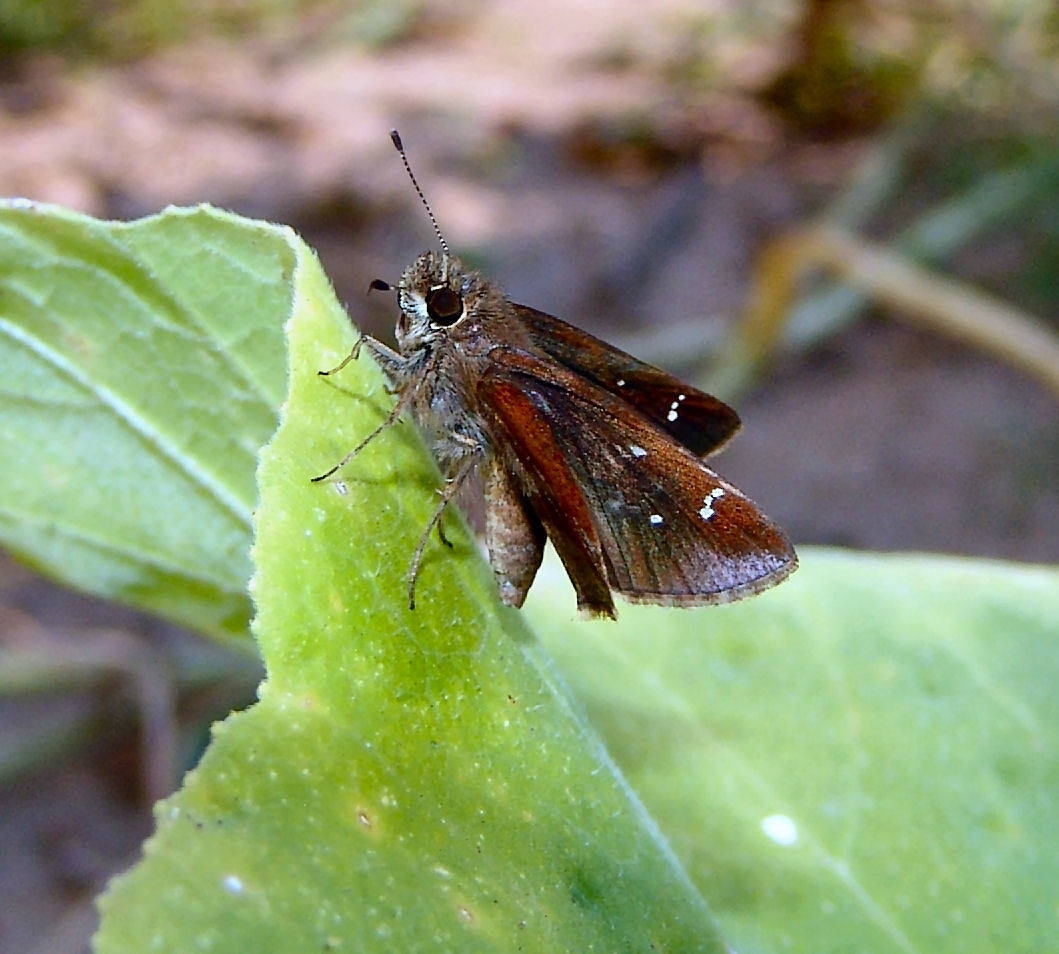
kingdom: Animalia
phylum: Arthropoda
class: Insecta
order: Lepidoptera
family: Hesperiidae
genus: Lerema
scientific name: Lerema accius
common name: Clouded skipper
